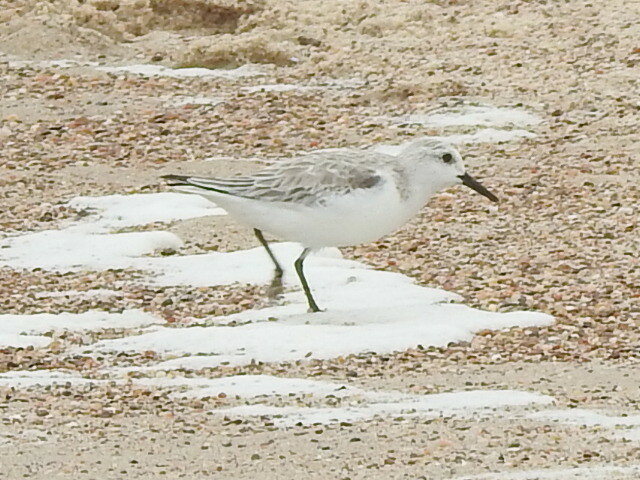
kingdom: Animalia
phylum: Chordata
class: Aves
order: Charadriiformes
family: Scolopacidae
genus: Calidris
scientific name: Calidris alba
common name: Sanderling
